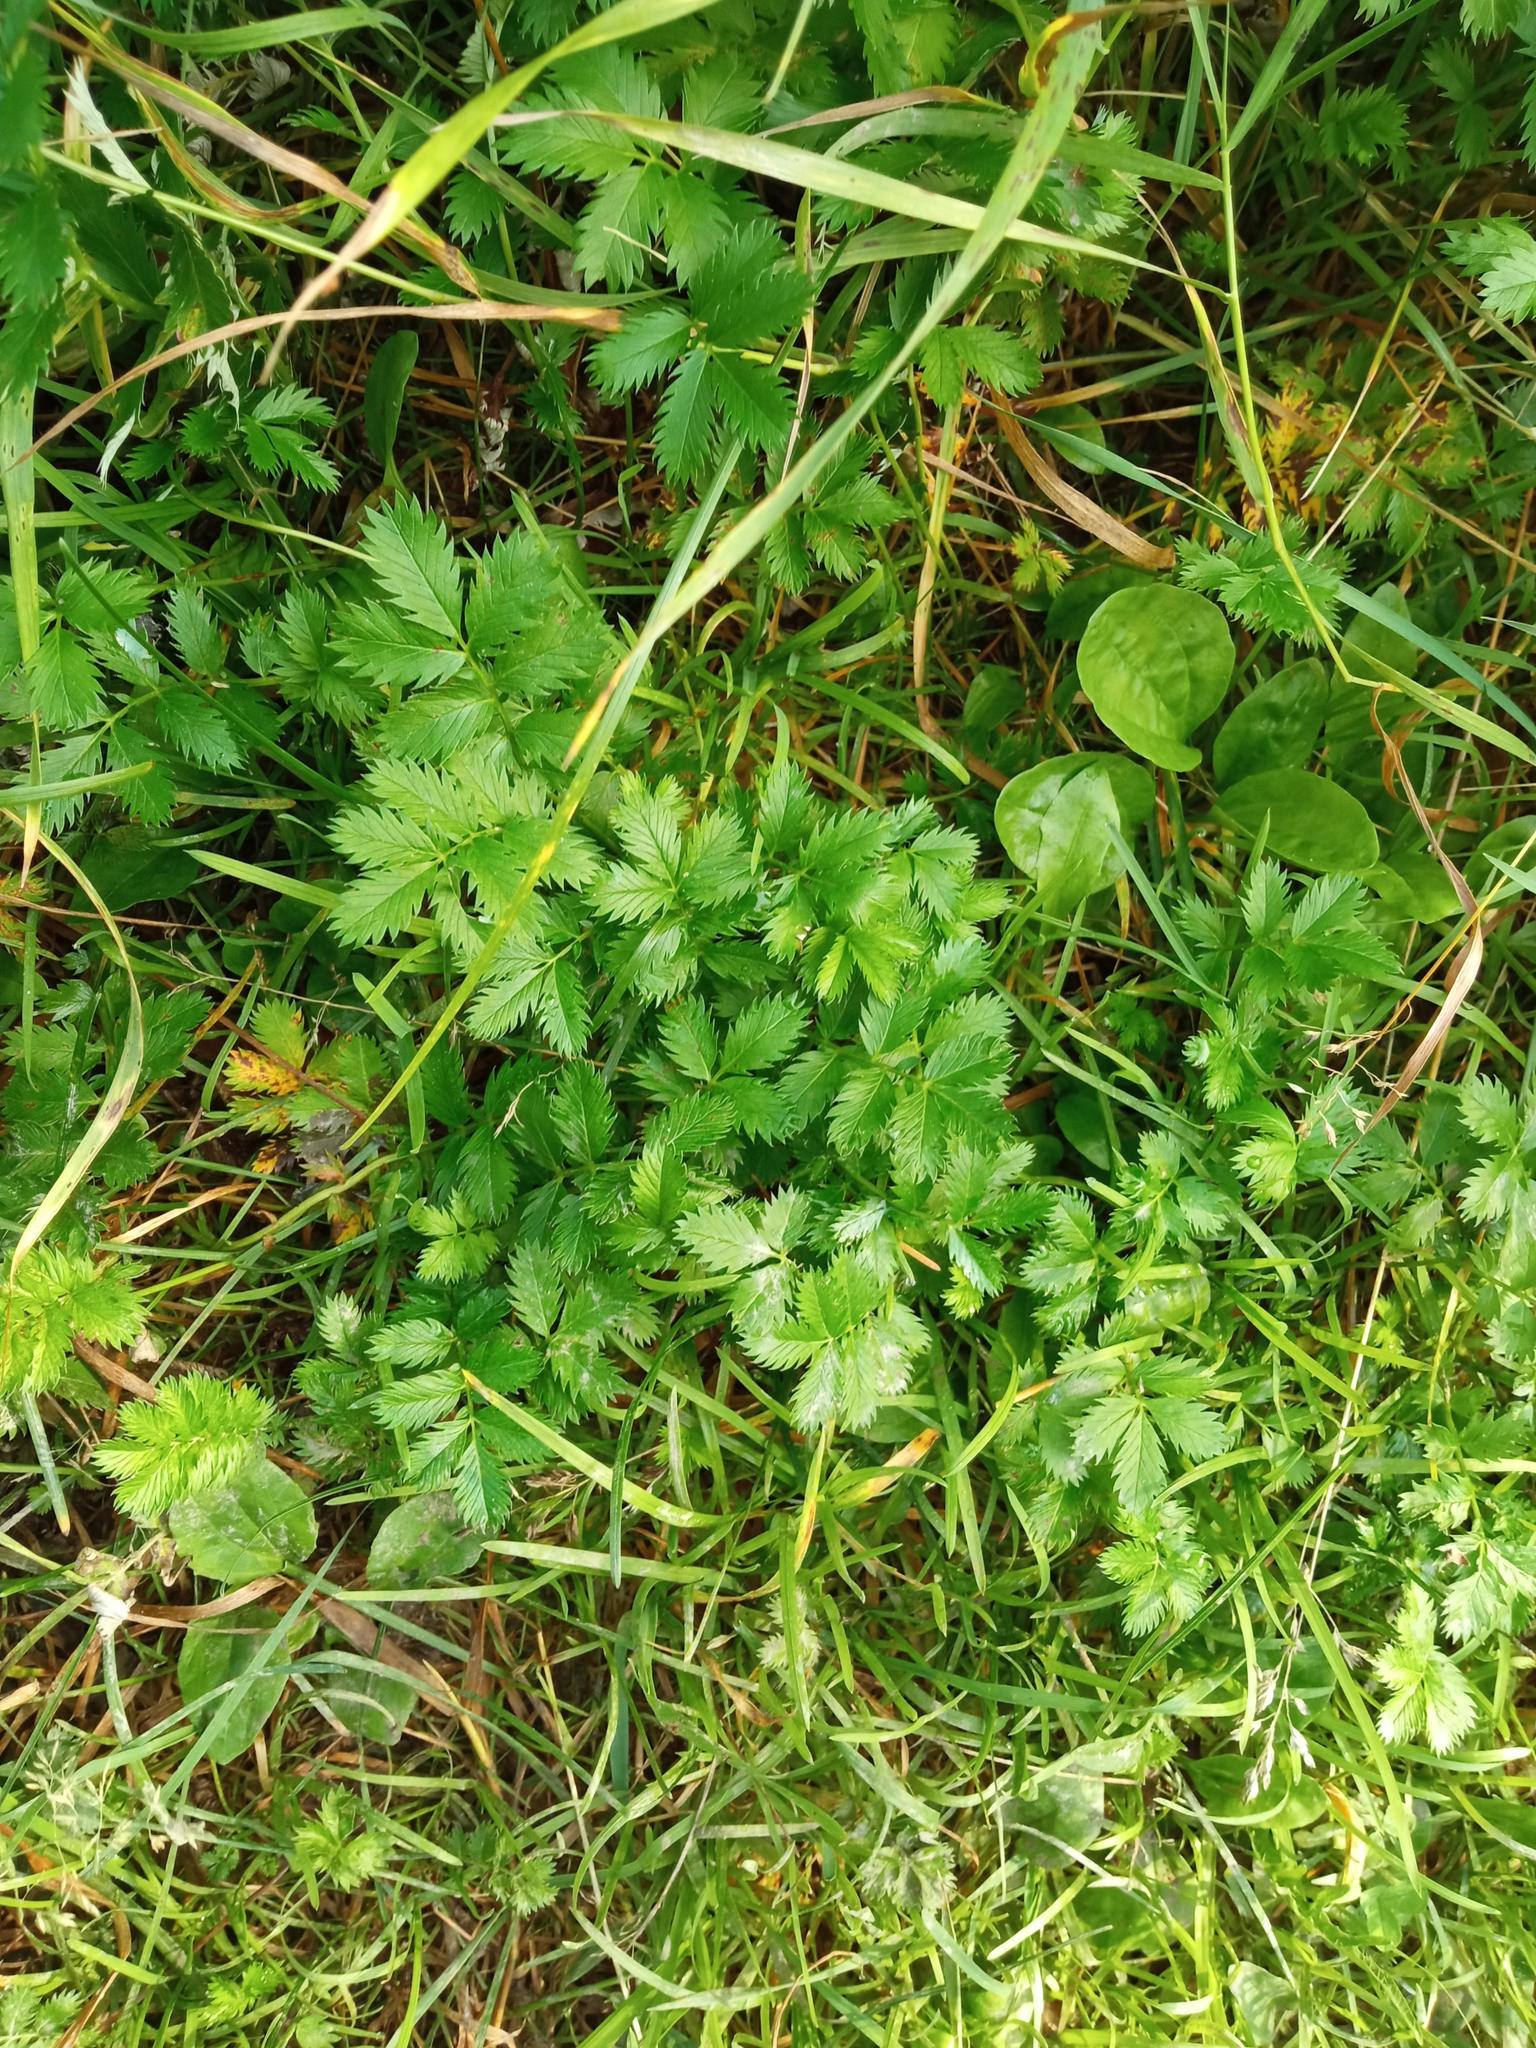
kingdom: Plantae
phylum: Tracheophyta
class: Magnoliopsida
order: Rosales
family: Rosaceae
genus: Argentina
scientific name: Argentina anserina
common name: Common silverweed
